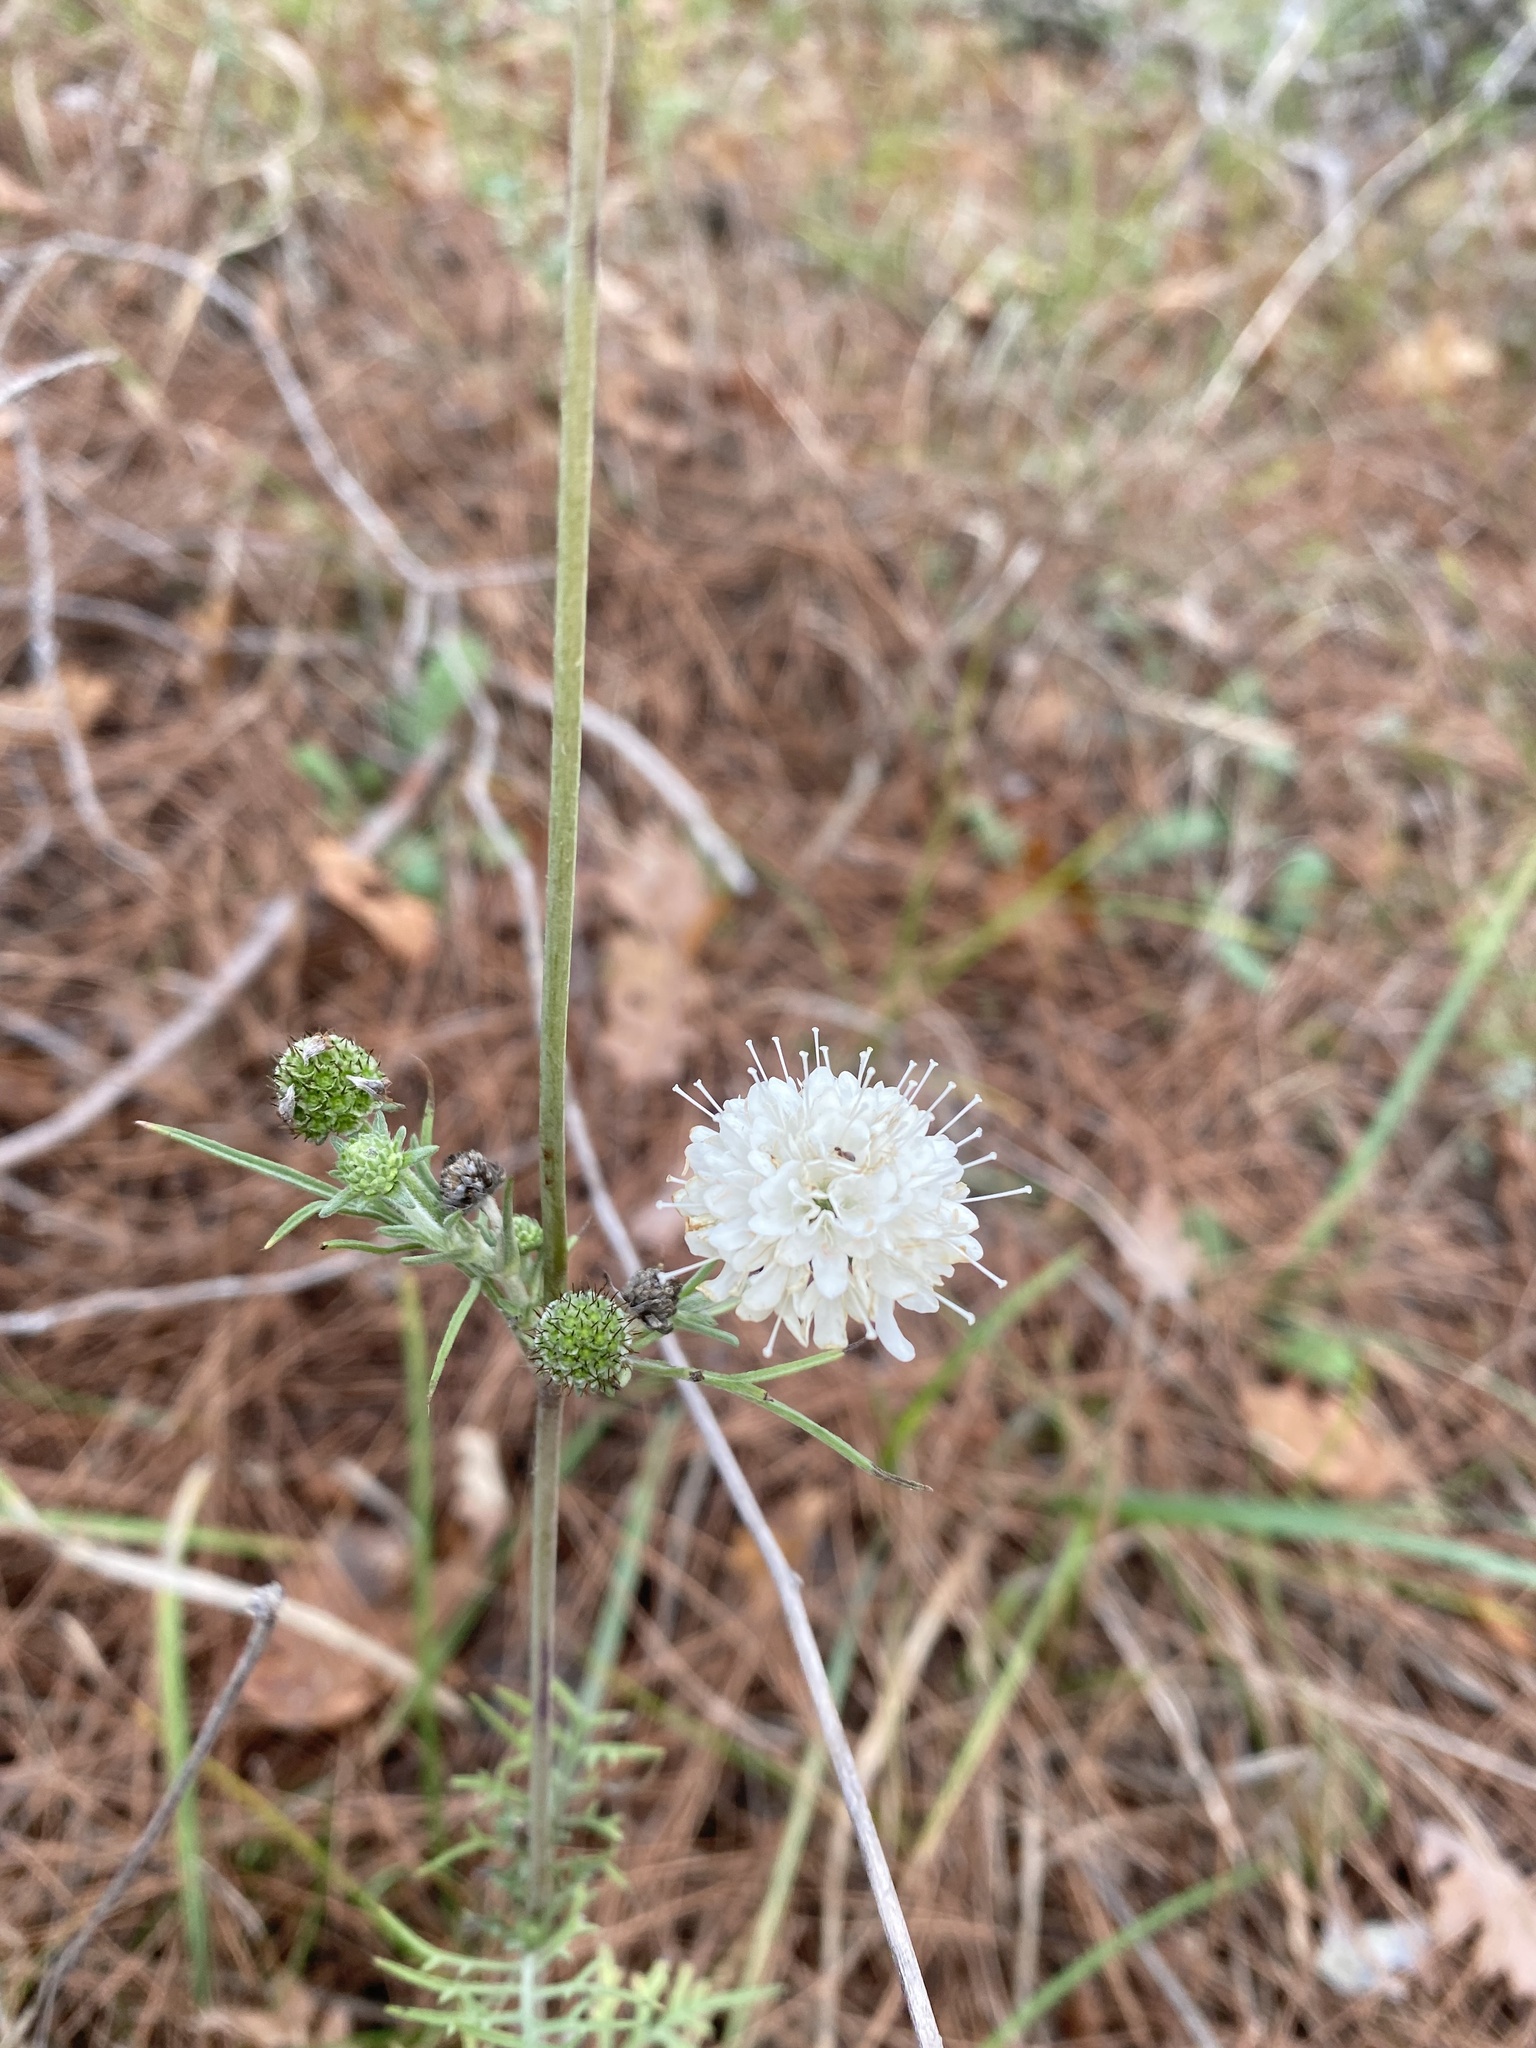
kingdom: Plantae
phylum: Tracheophyta
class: Magnoliopsida
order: Dipsacales
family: Caprifoliaceae
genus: Scabiosa
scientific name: Scabiosa bipinnata
